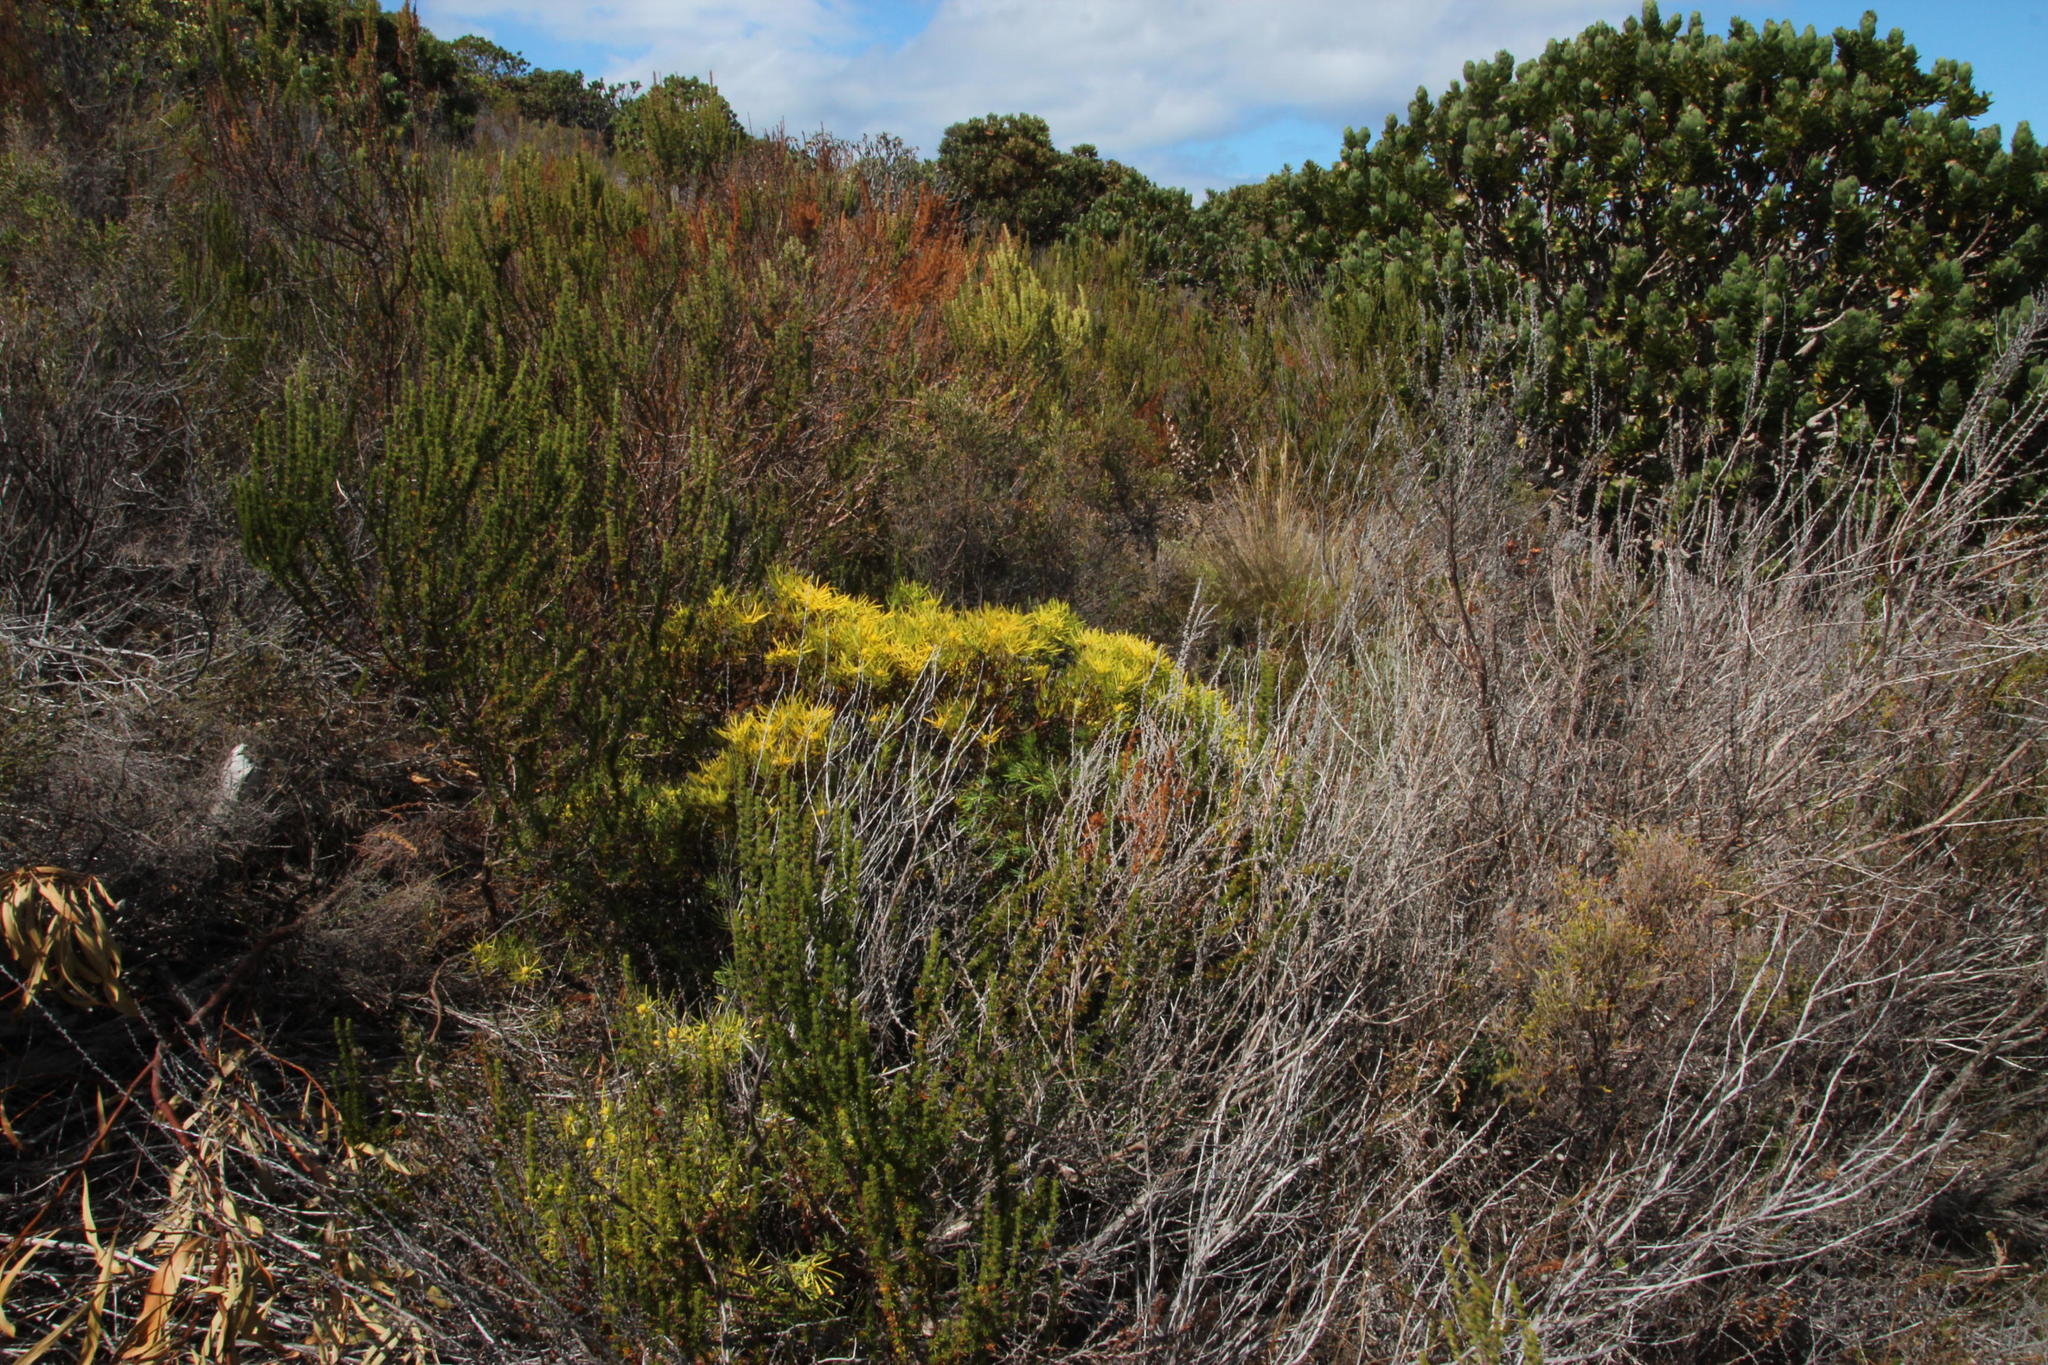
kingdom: Plantae
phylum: Tracheophyta
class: Magnoliopsida
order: Proteales
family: Proteaceae
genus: Leucadendron
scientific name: Leucadendron salignum
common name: Common sunshine conebush
